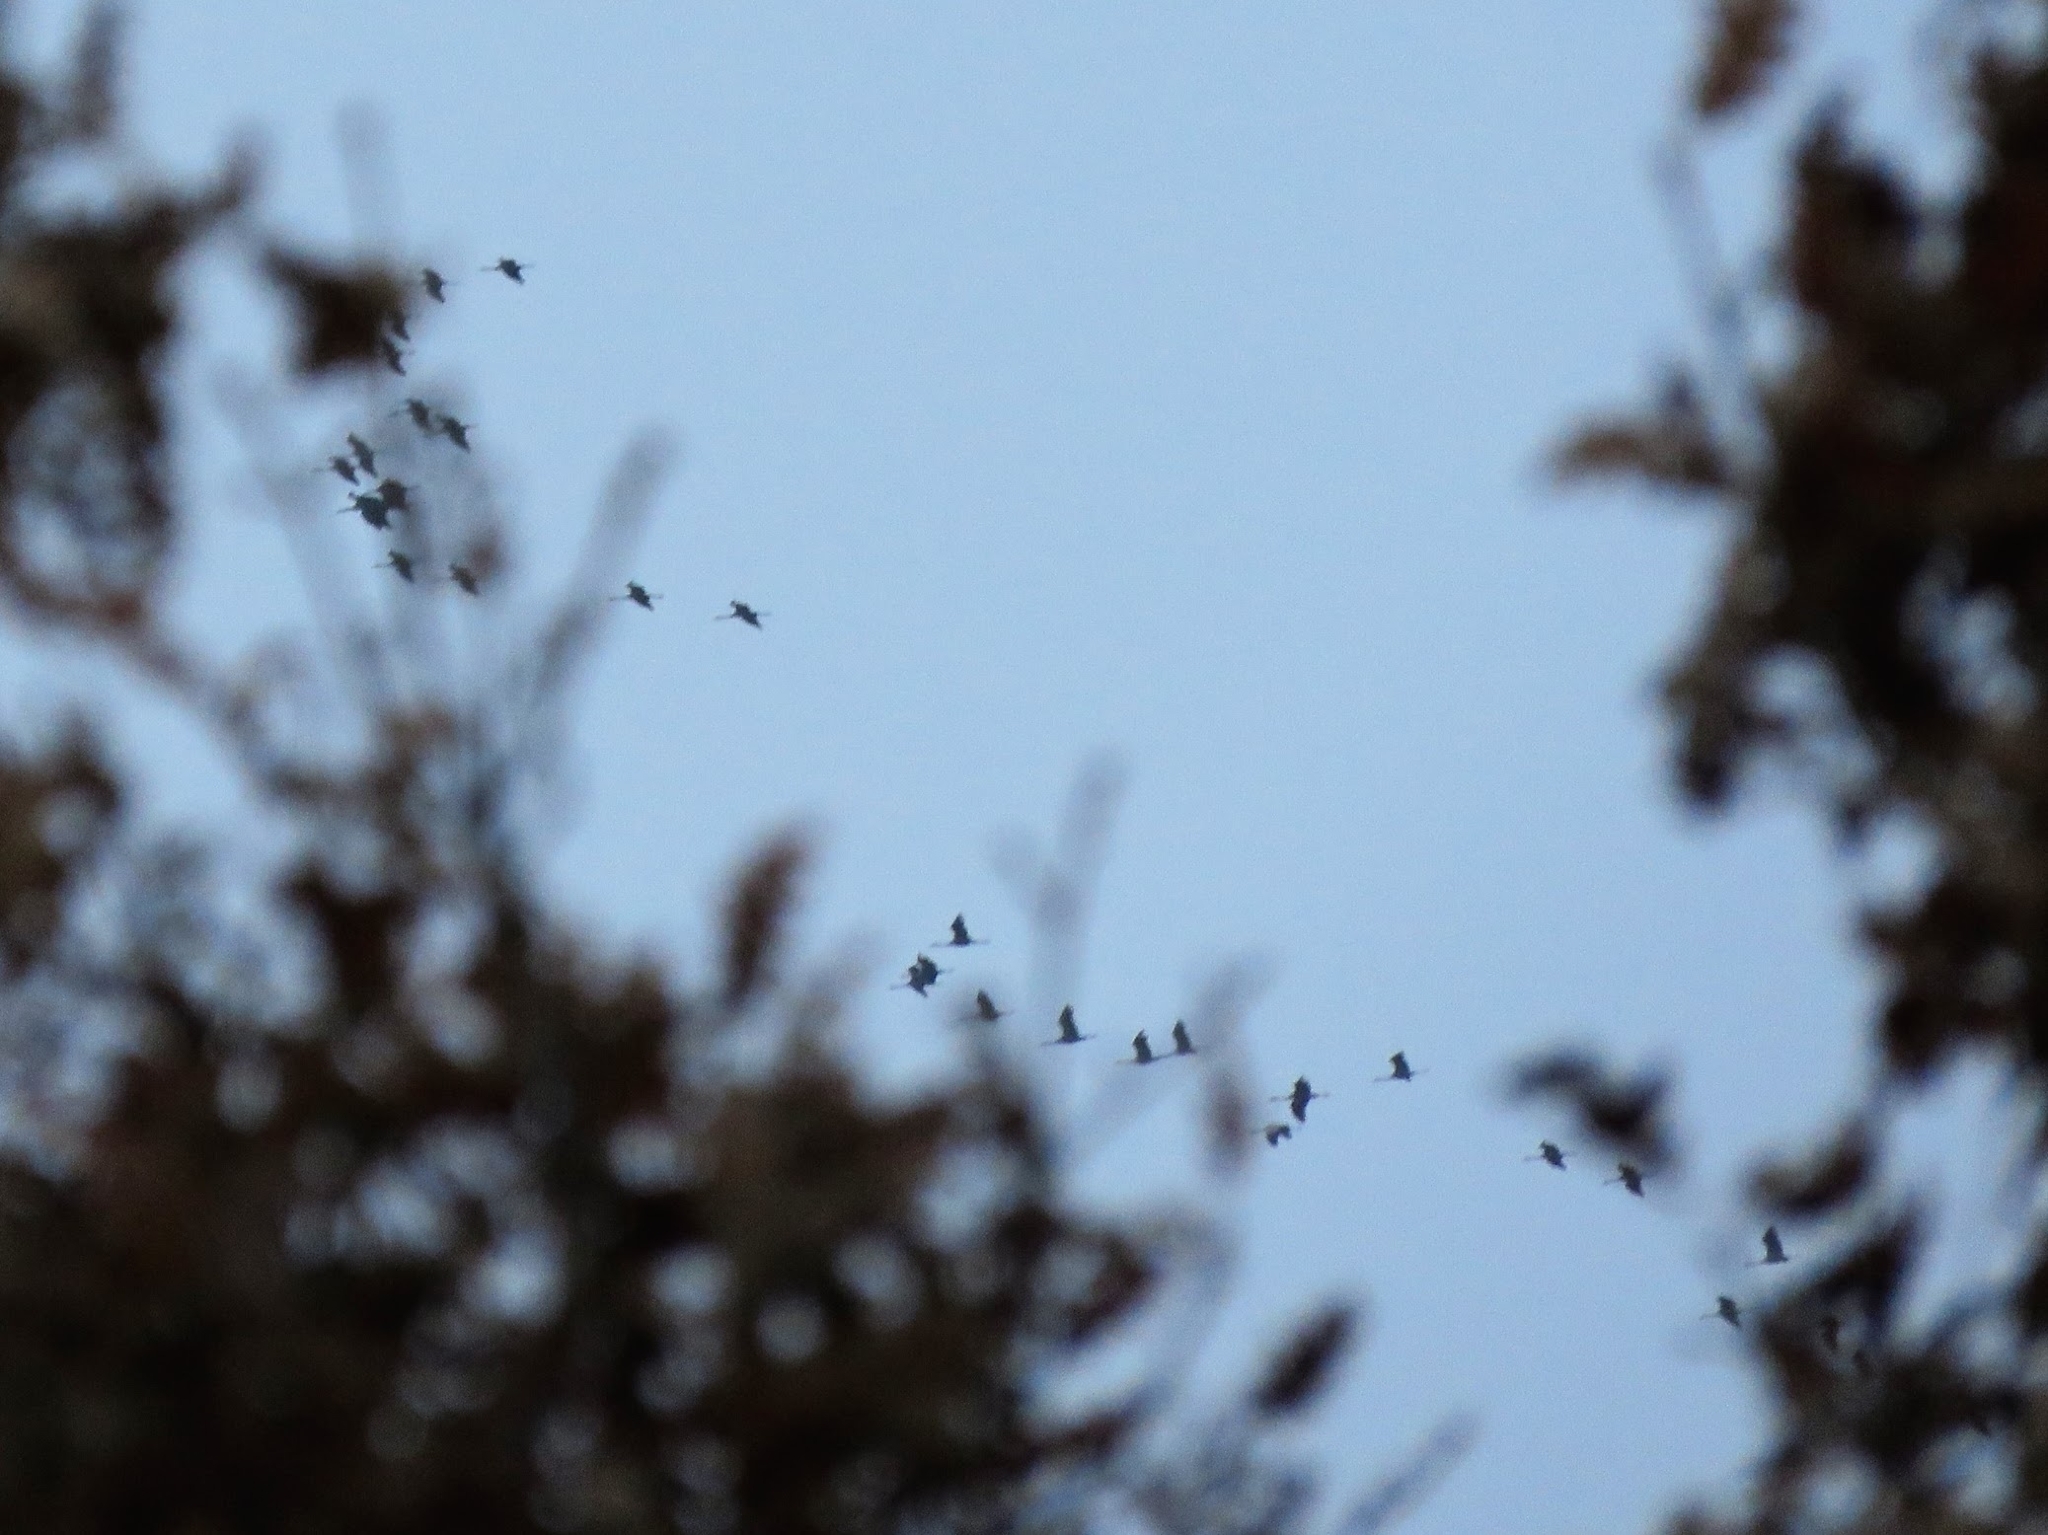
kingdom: Animalia
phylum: Chordata
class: Aves
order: Gruiformes
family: Gruidae
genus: Grus
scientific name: Grus grus
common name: Common crane
